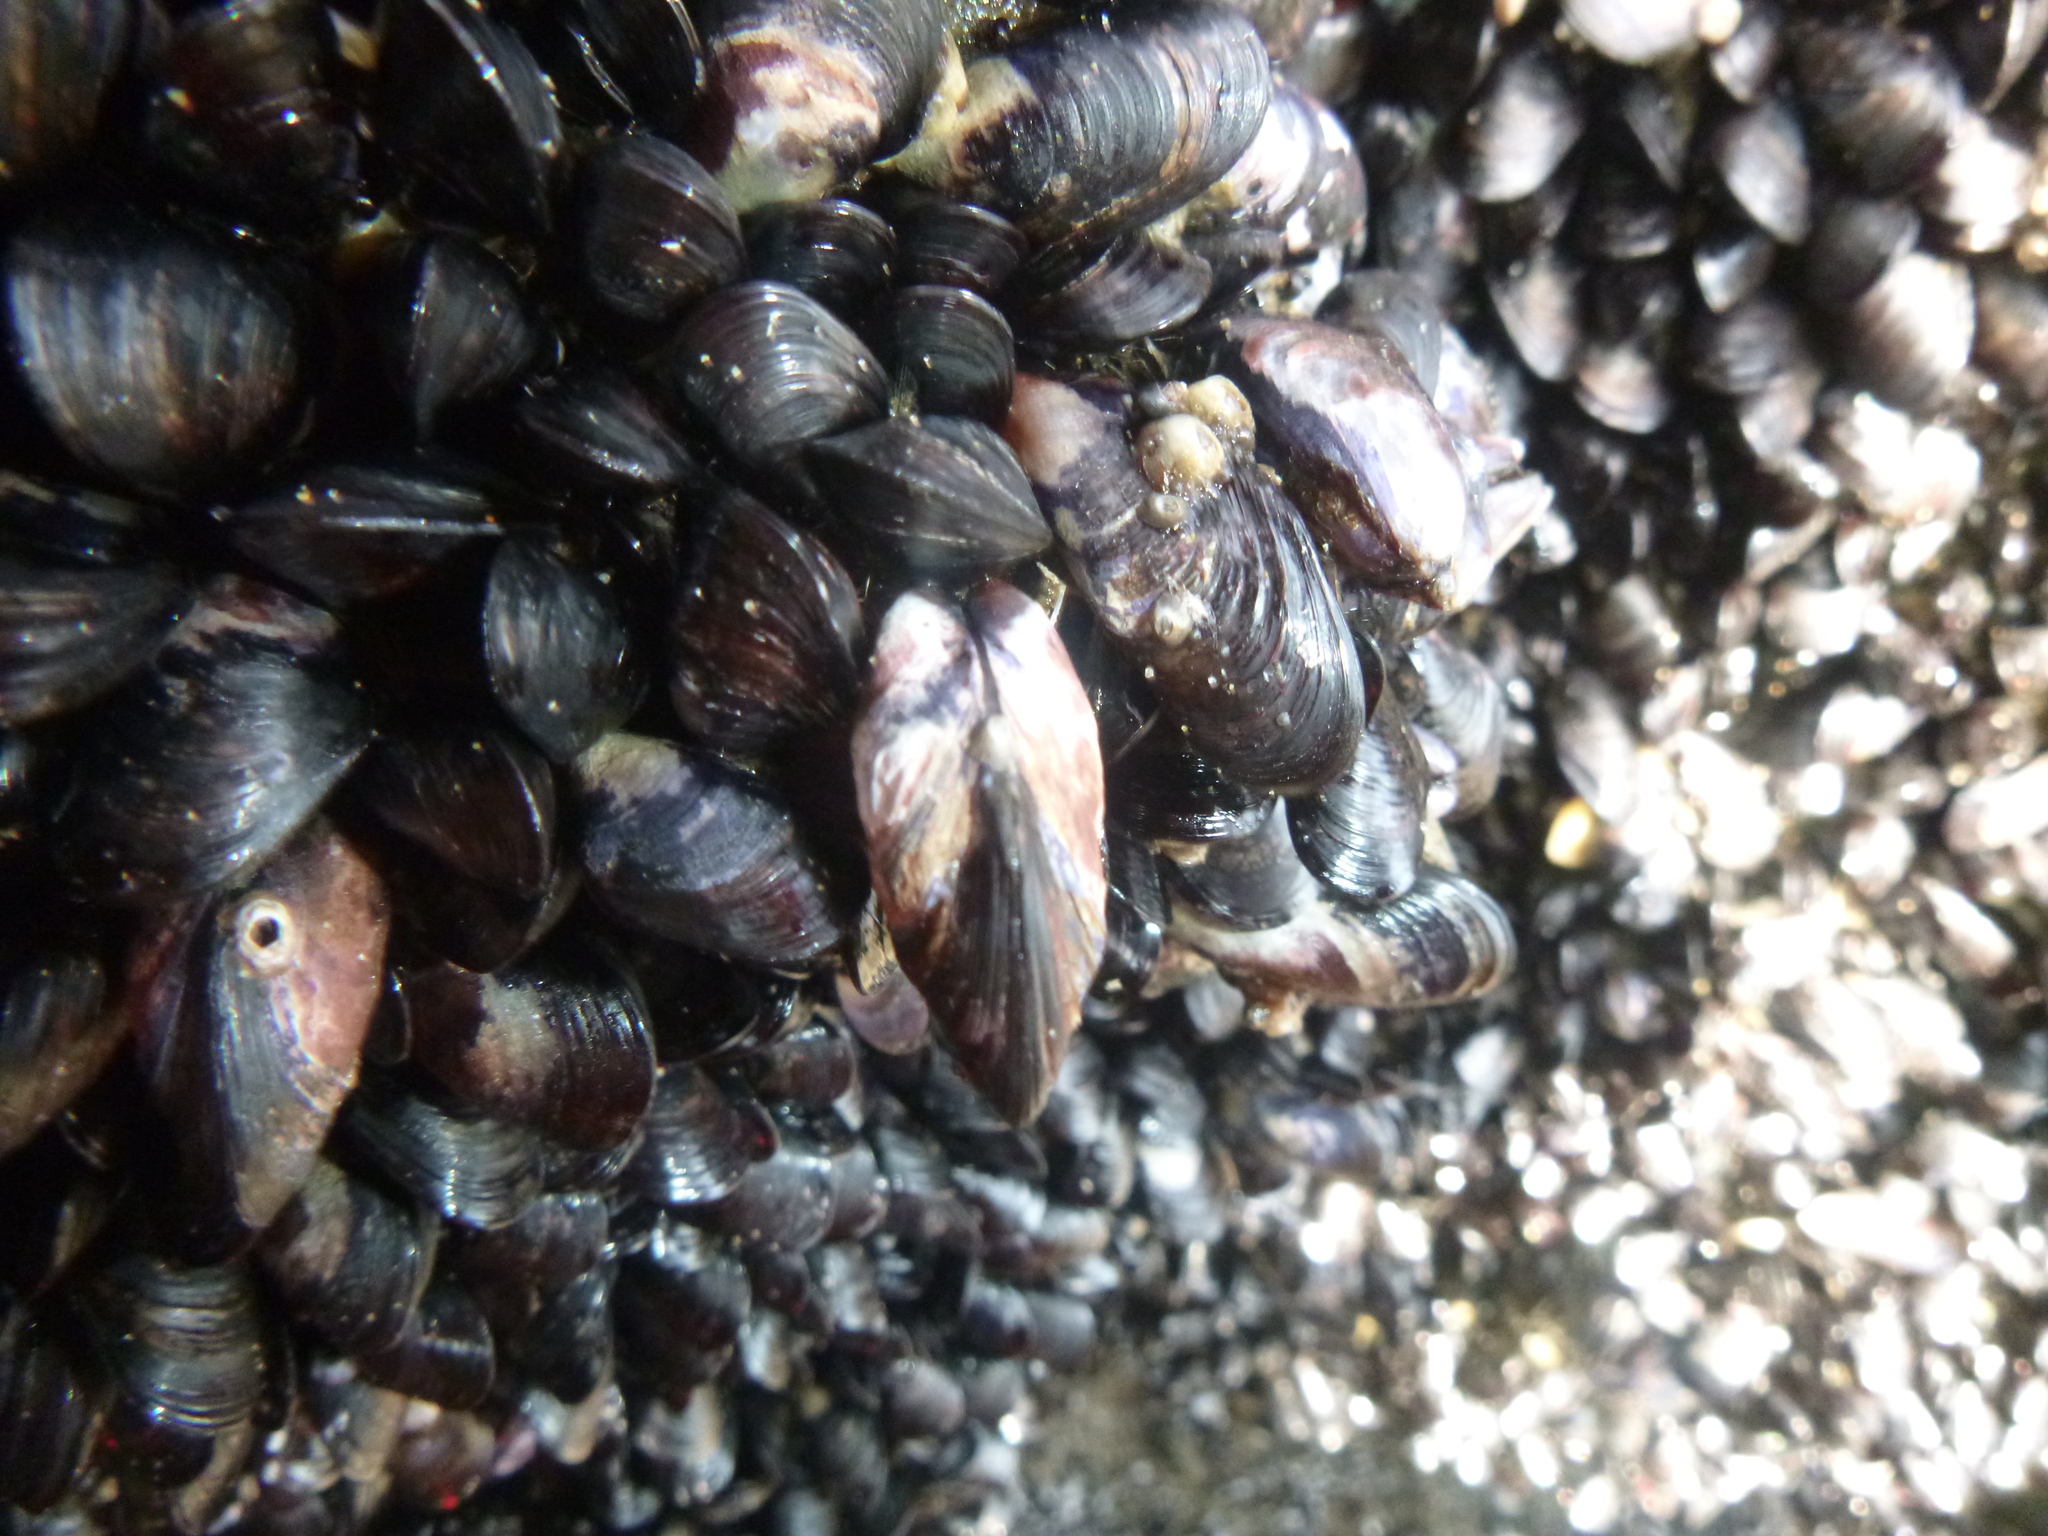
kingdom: Animalia
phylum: Mollusca
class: Bivalvia
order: Mytilida
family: Mytilidae
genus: Xenostrobus
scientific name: Xenostrobus neozelanicus
